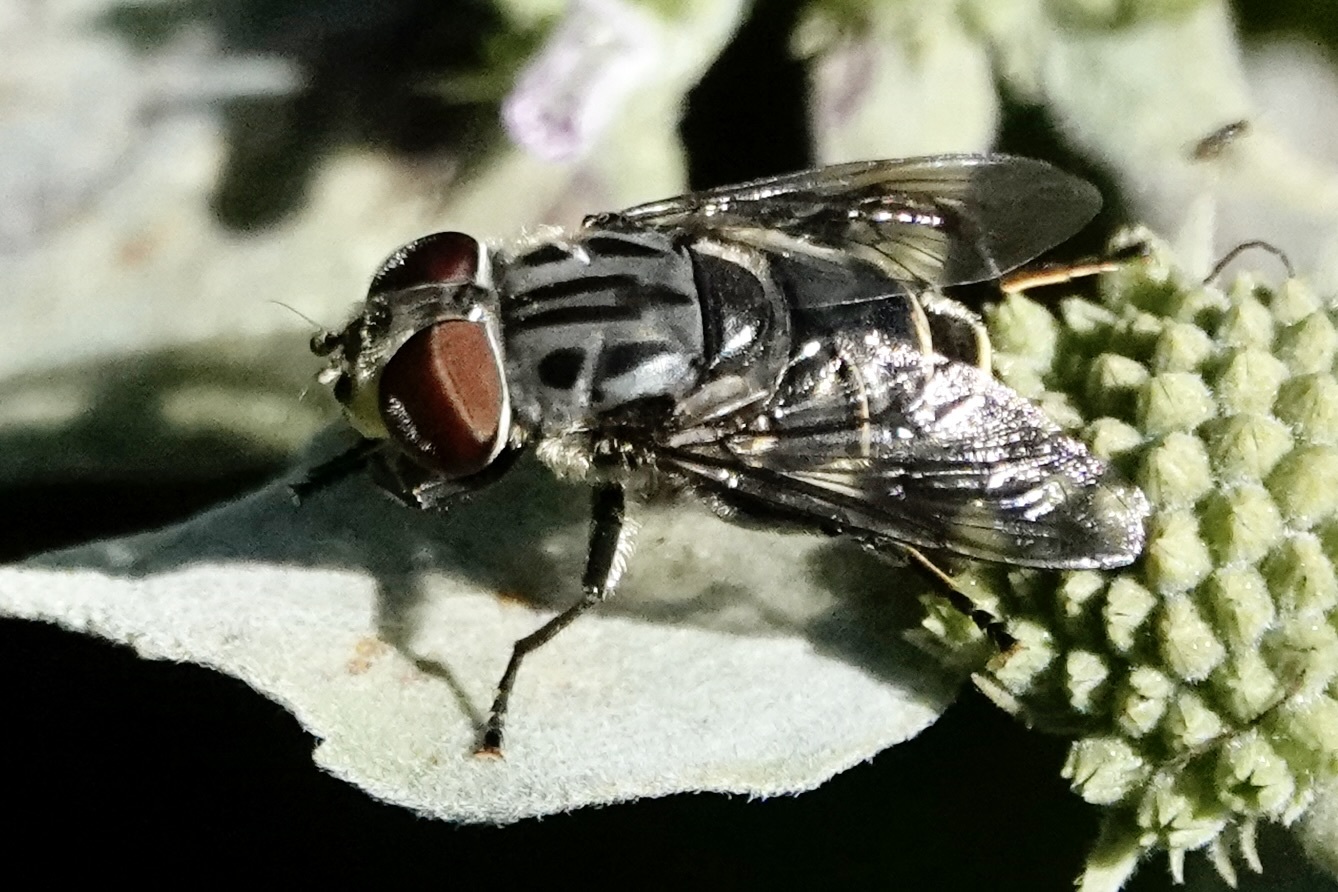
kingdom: Animalia
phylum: Arthropoda
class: Insecta
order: Diptera
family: Syrphidae
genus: Palpada
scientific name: Palpada furcata
